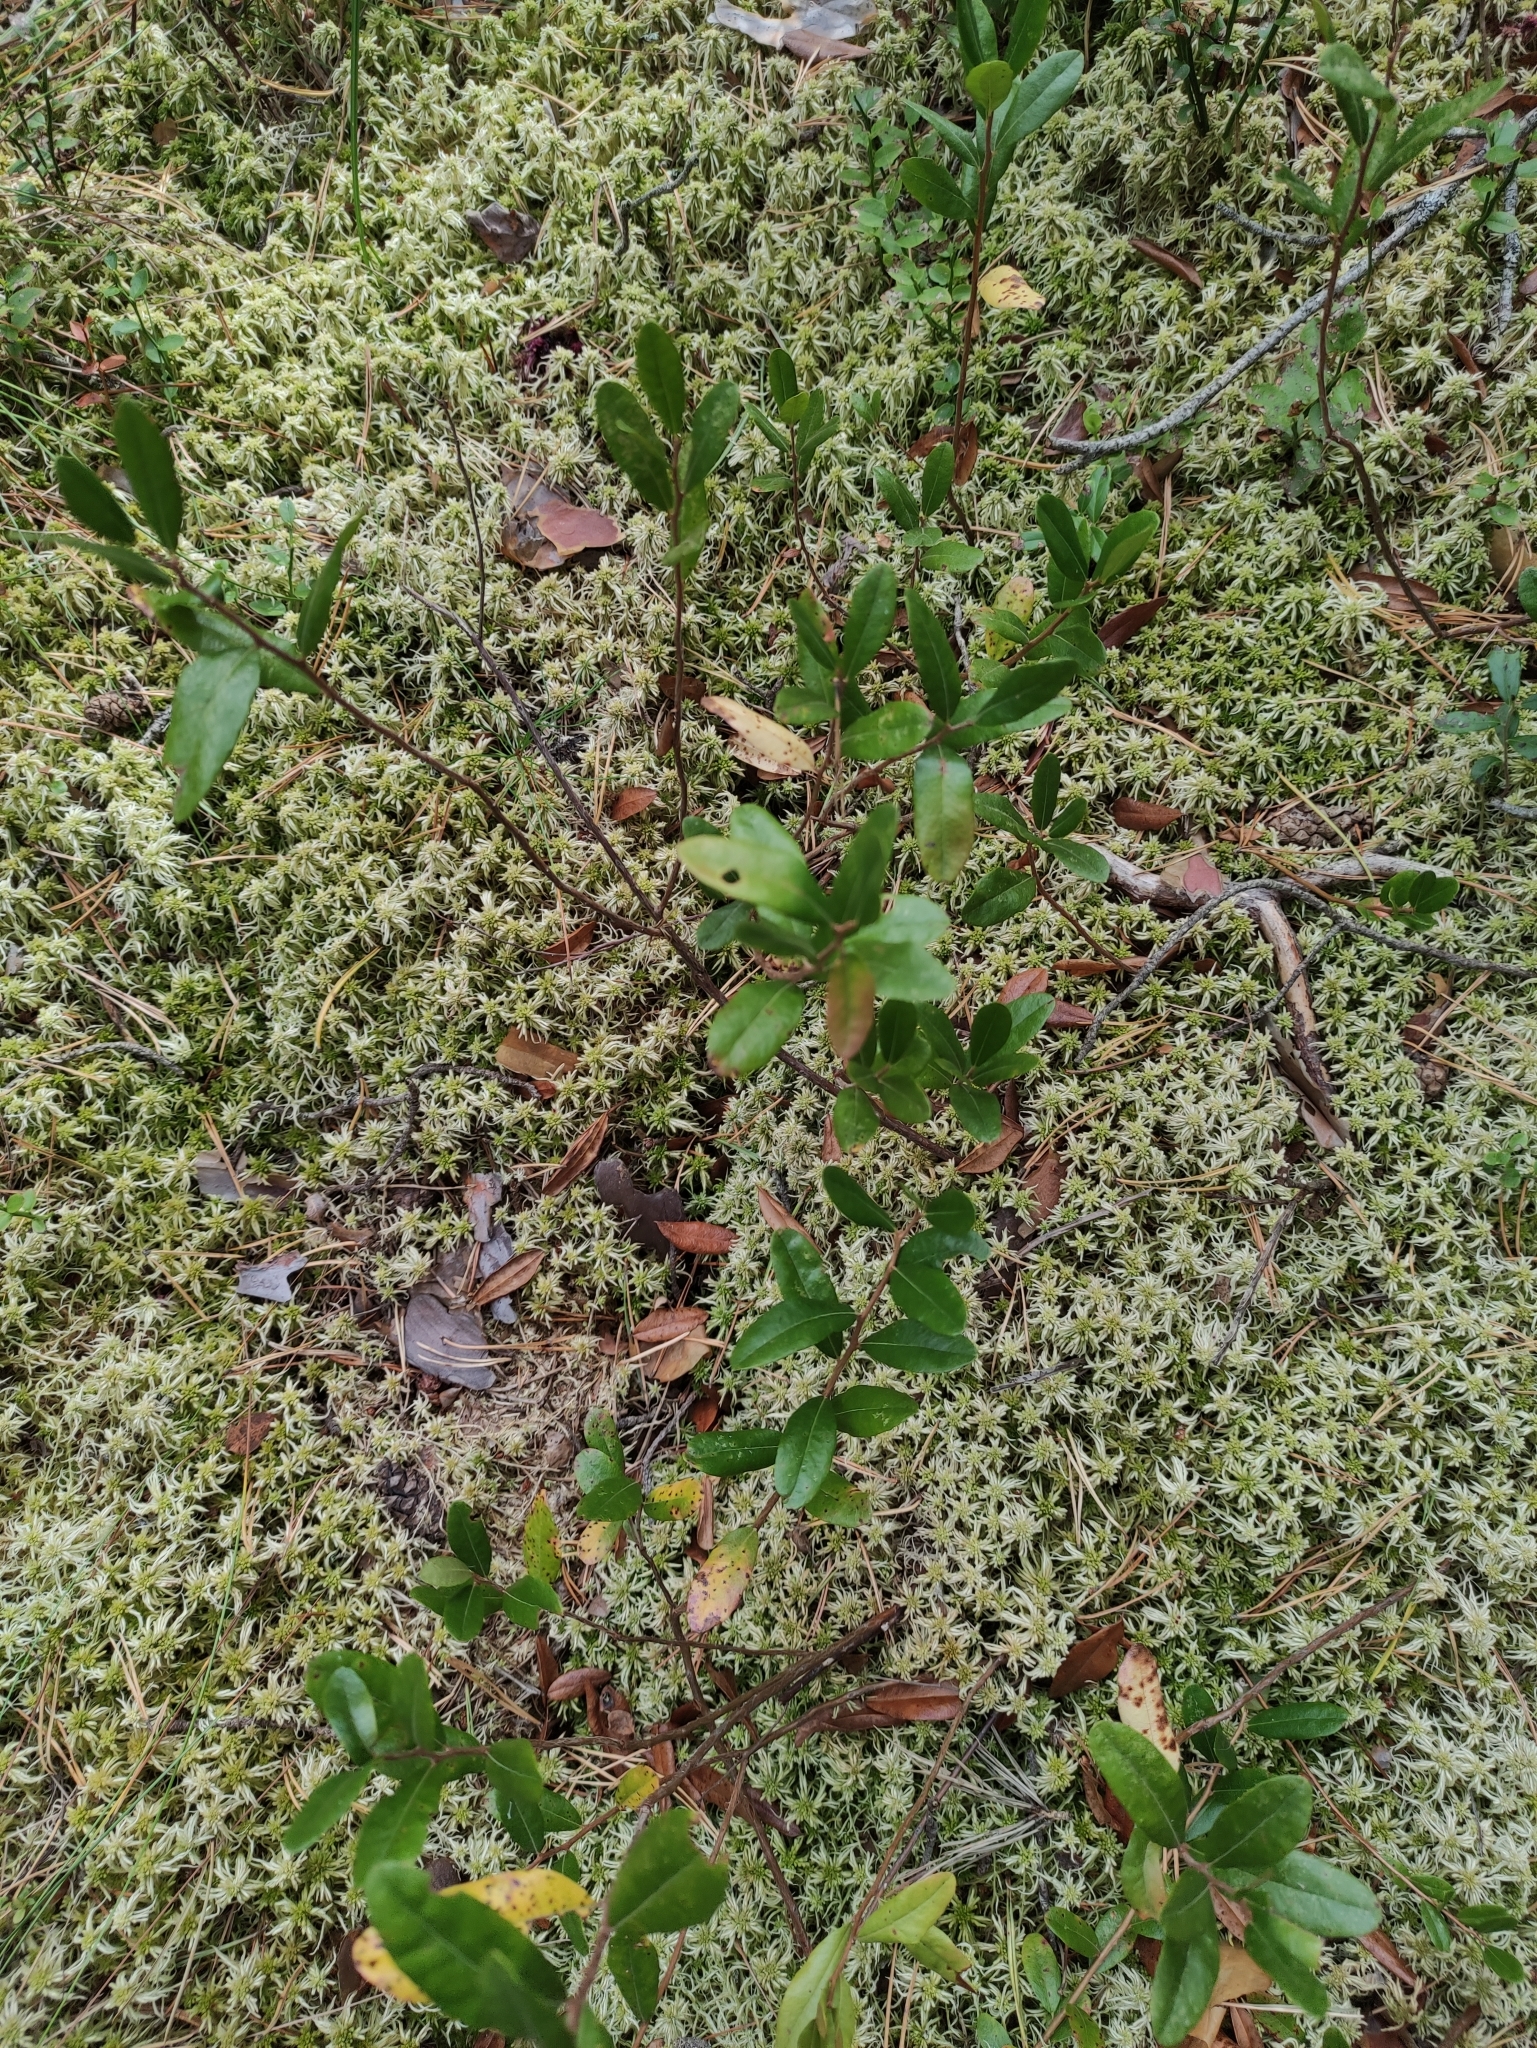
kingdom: Plantae
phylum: Tracheophyta
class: Magnoliopsida
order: Ericales
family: Ericaceae
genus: Chamaedaphne
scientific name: Chamaedaphne calyculata
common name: Leatherleaf
